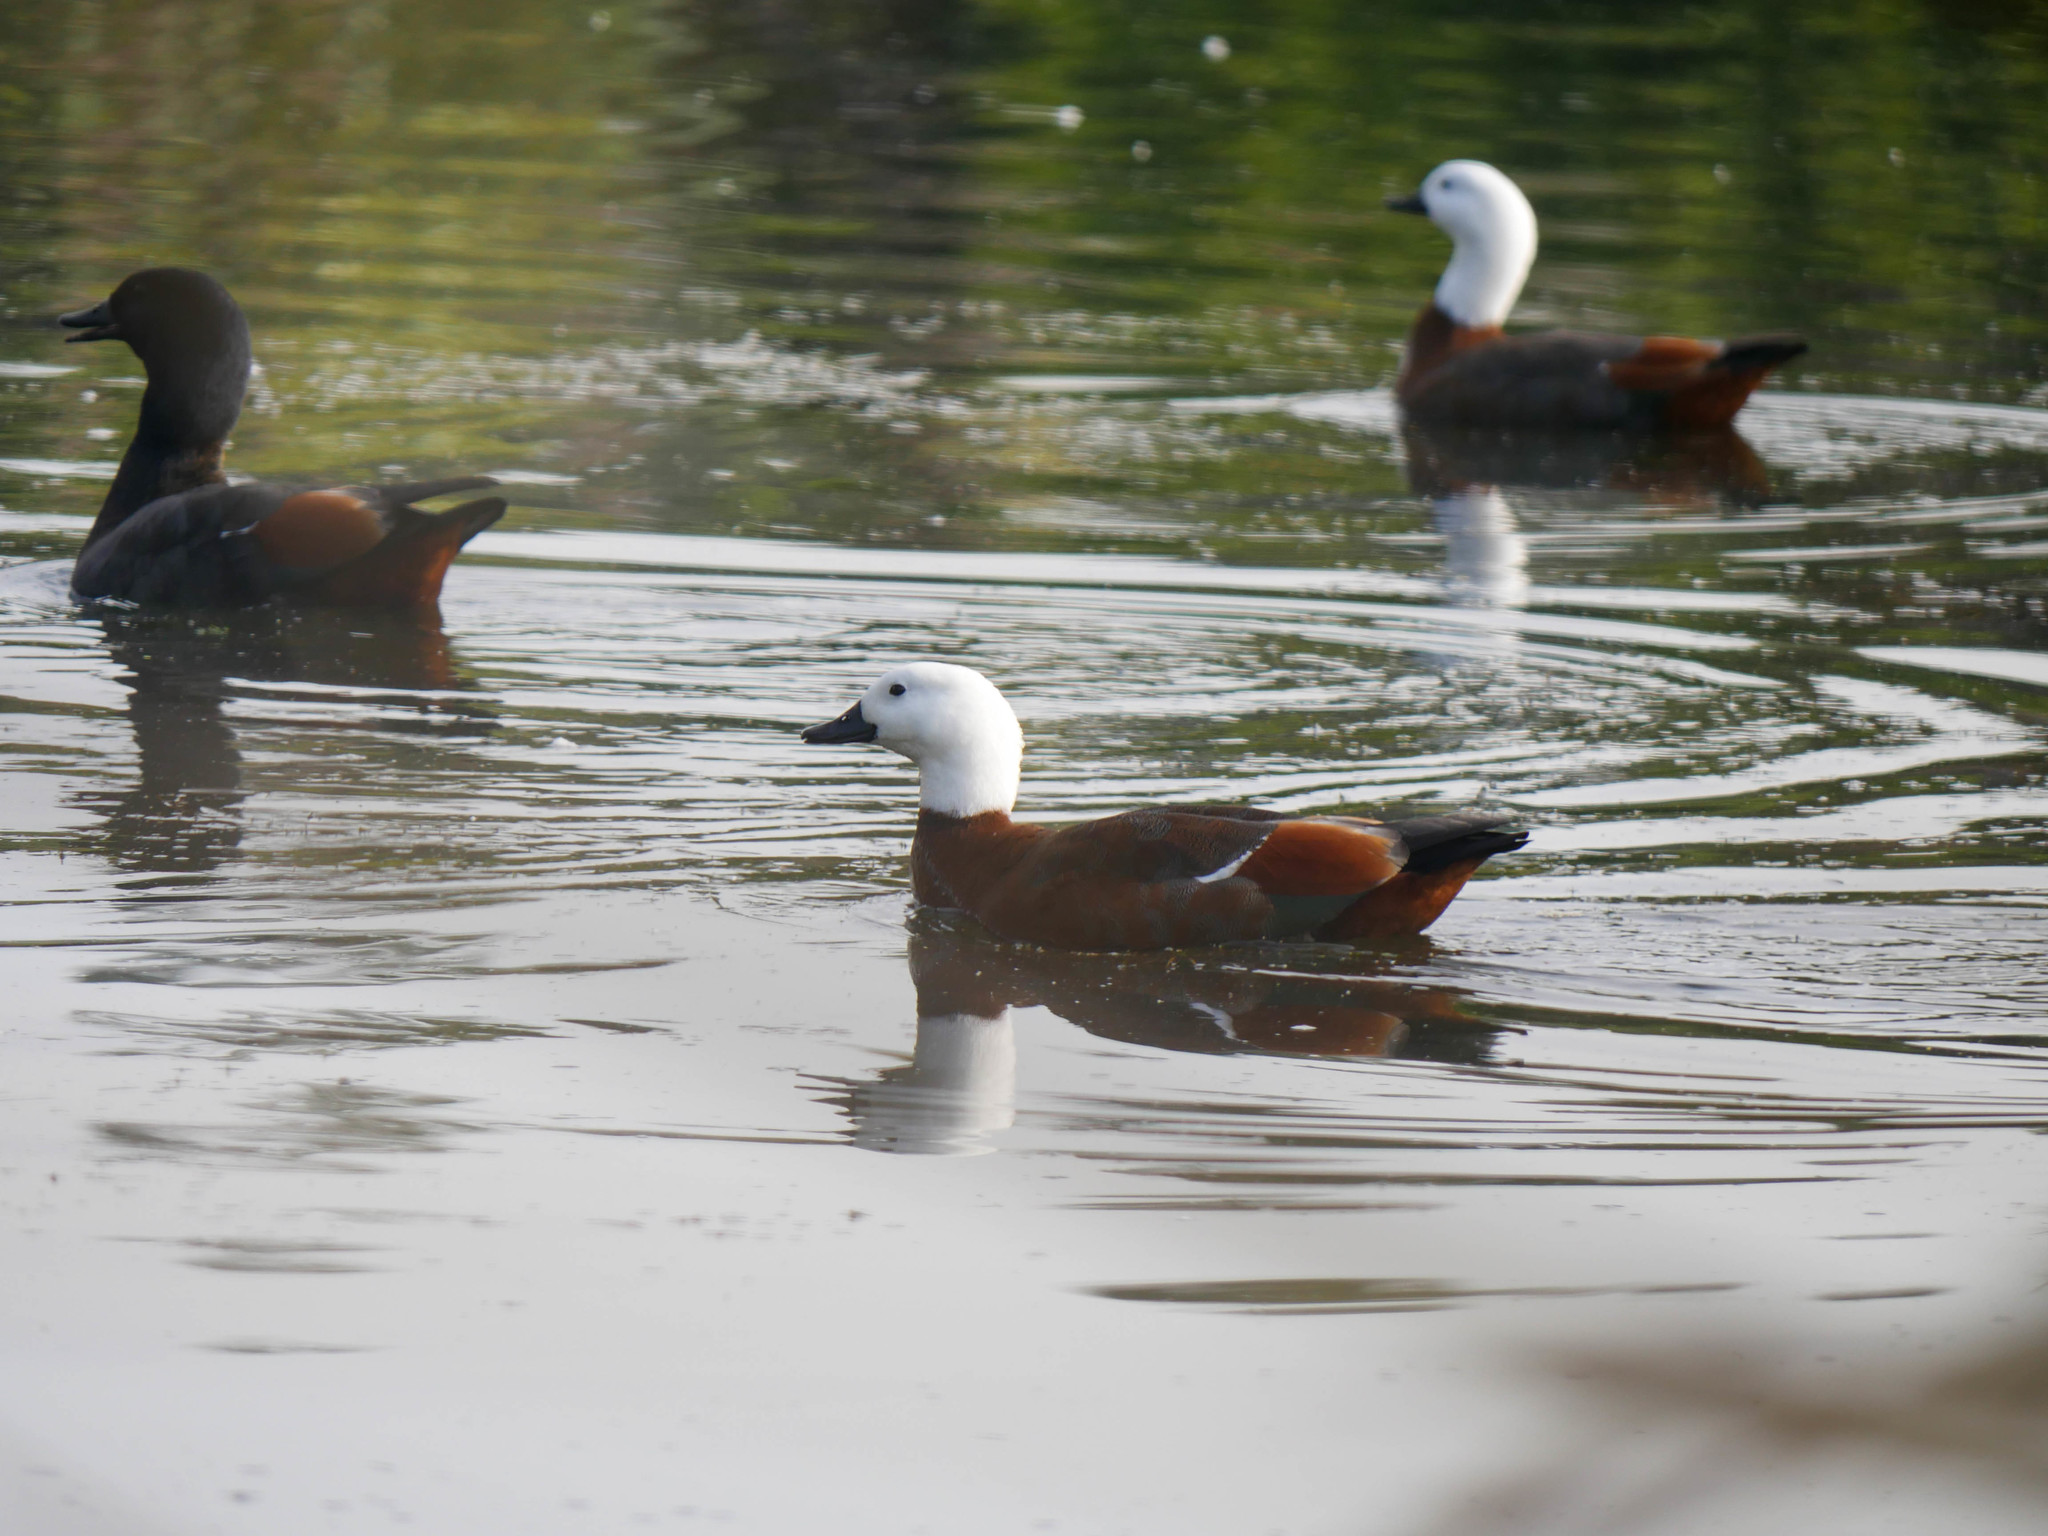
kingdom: Animalia
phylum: Chordata
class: Aves
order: Anseriformes
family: Anatidae
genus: Tadorna
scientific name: Tadorna variegata
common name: Paradise shelduck
